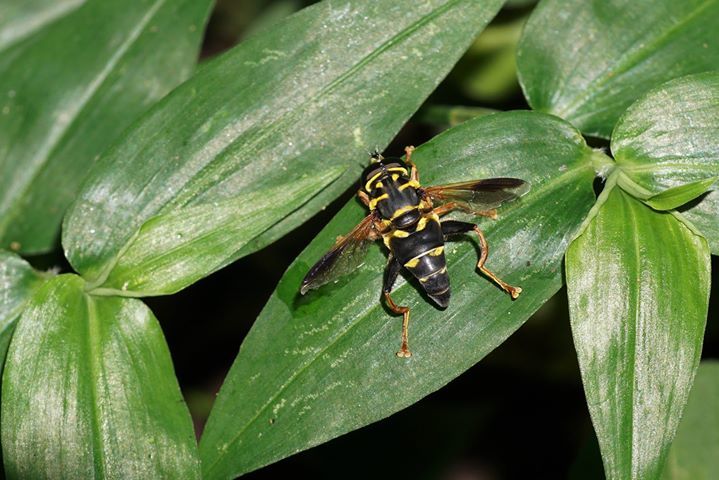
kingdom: Animalia
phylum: Arthropoda
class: Insecta
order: Diptera
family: Syrphidae
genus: Meromacrus
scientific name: Meromacrus acutus
